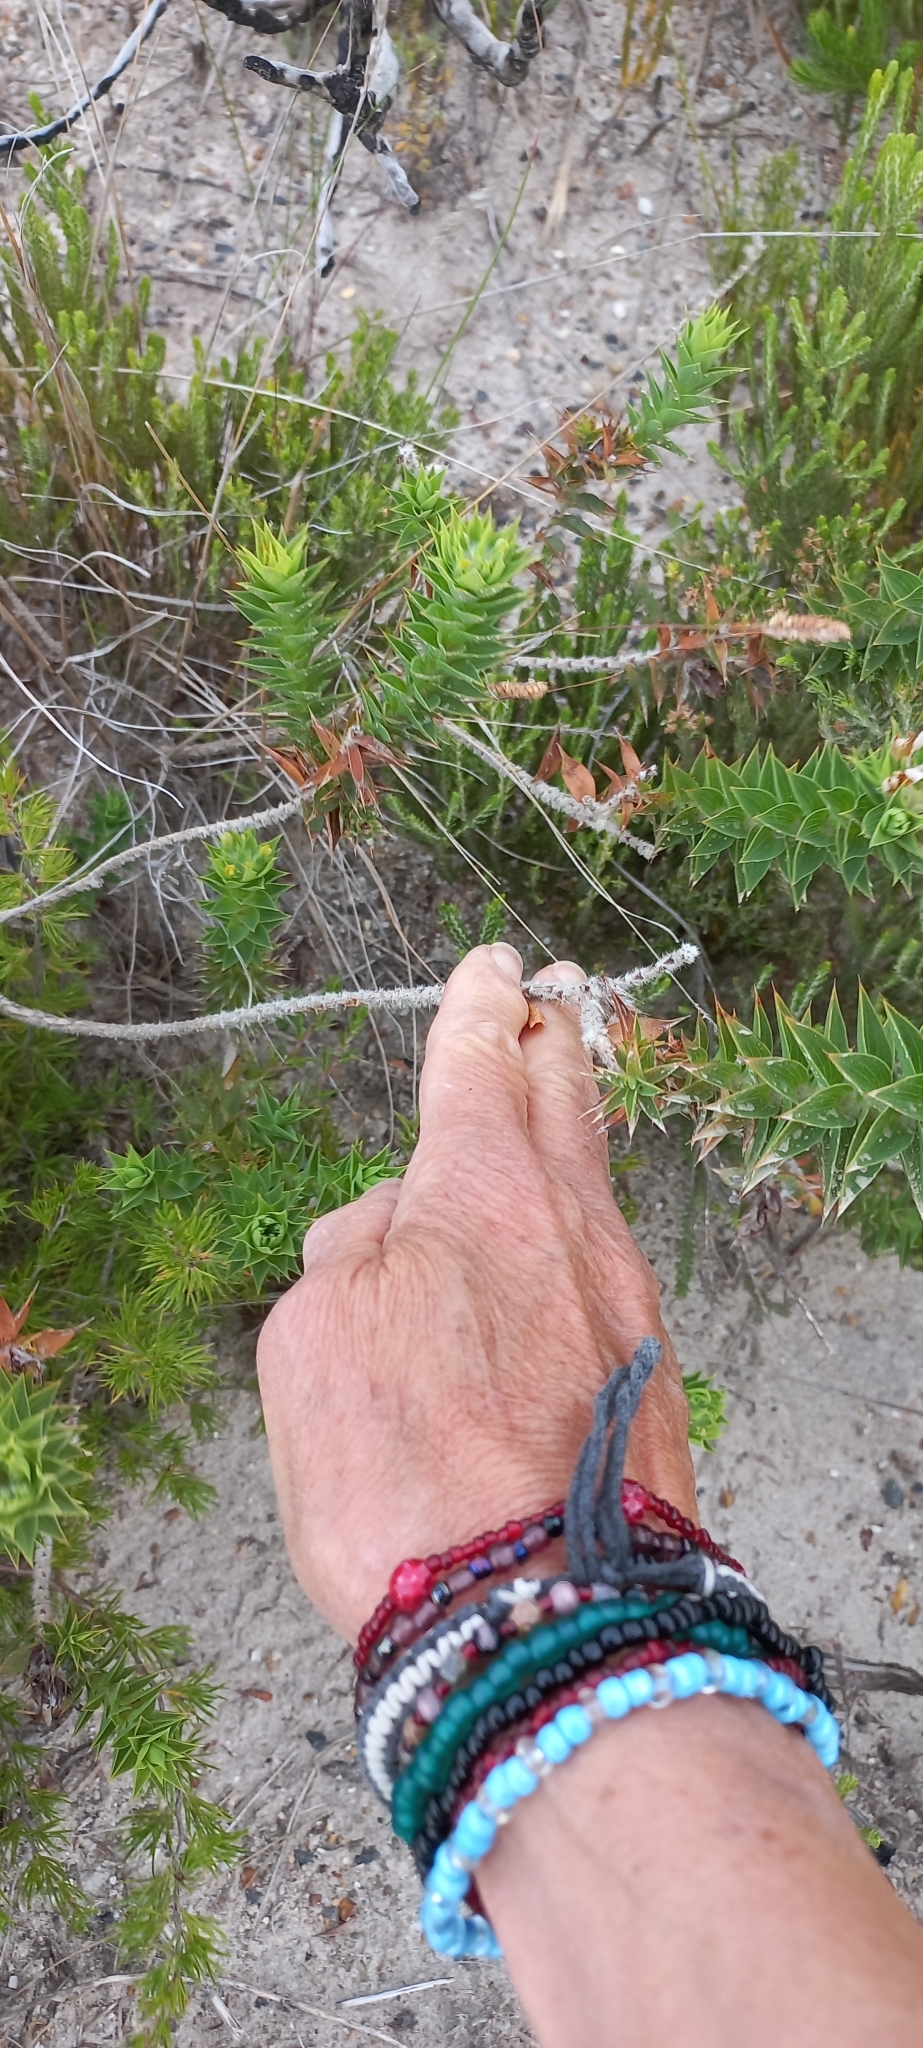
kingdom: Plantae
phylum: Tracheophyta
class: Magnoliopsida
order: Fabales
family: Fabaceae
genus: Aspalathus
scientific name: Aspalathus cordata
